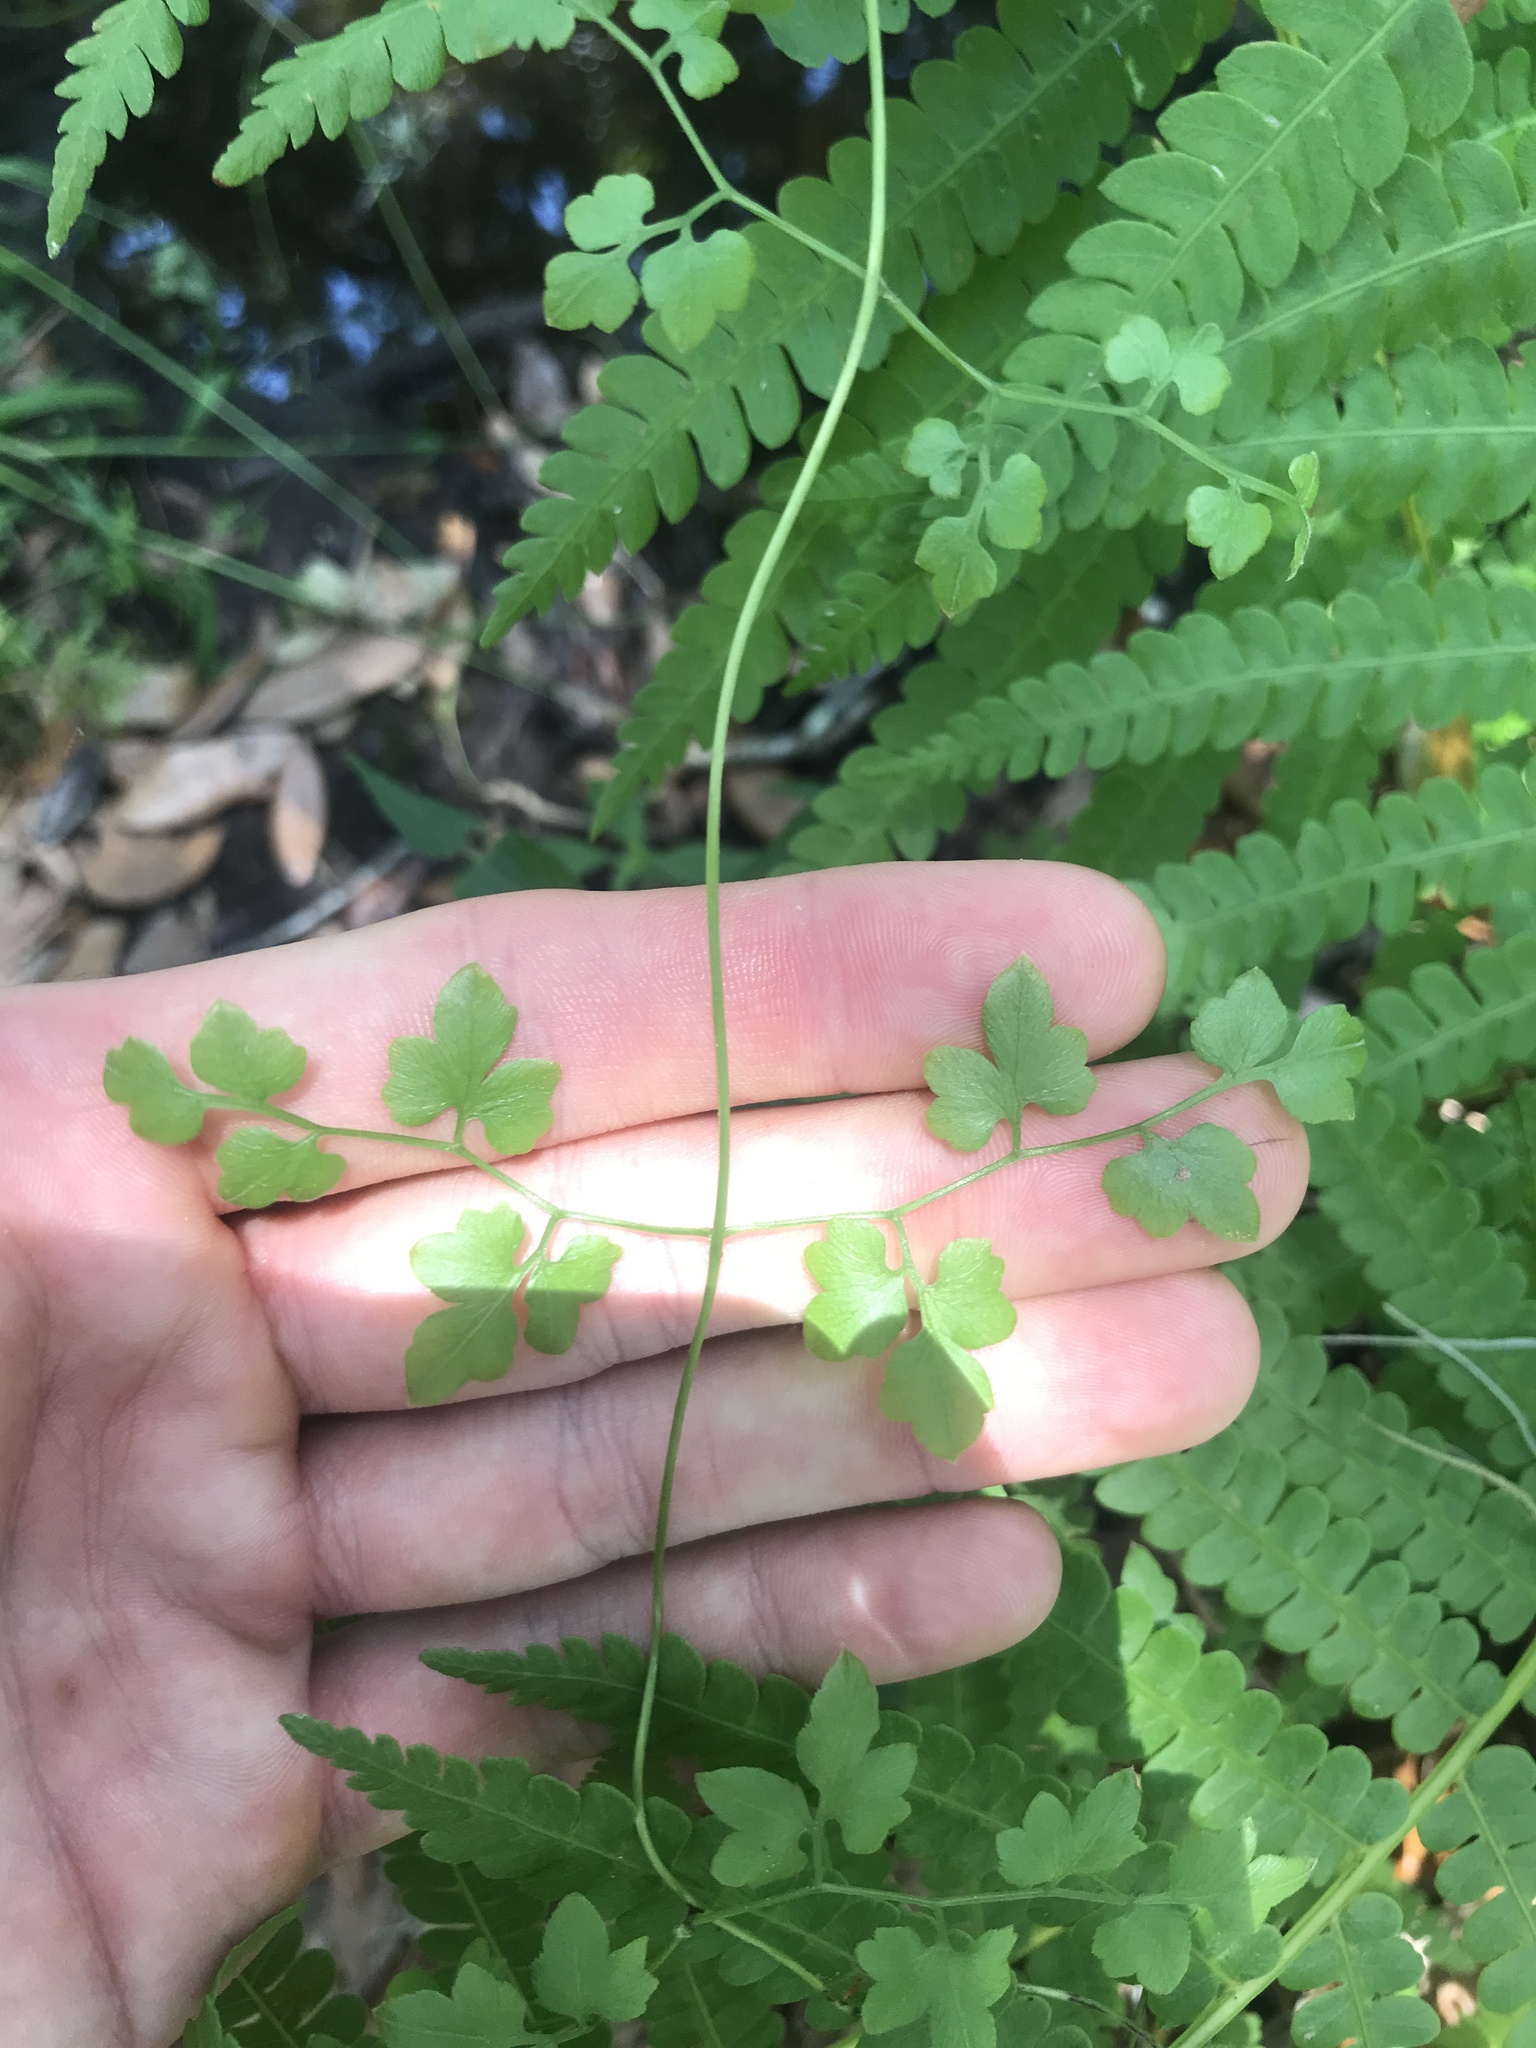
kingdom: Plantae
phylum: Tracheophyta
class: Polypodiopsida
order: Schizaeales
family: Lygodiaceae
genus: Lygodium
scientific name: Lygodium japonicum
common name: Japanese climbing fern
